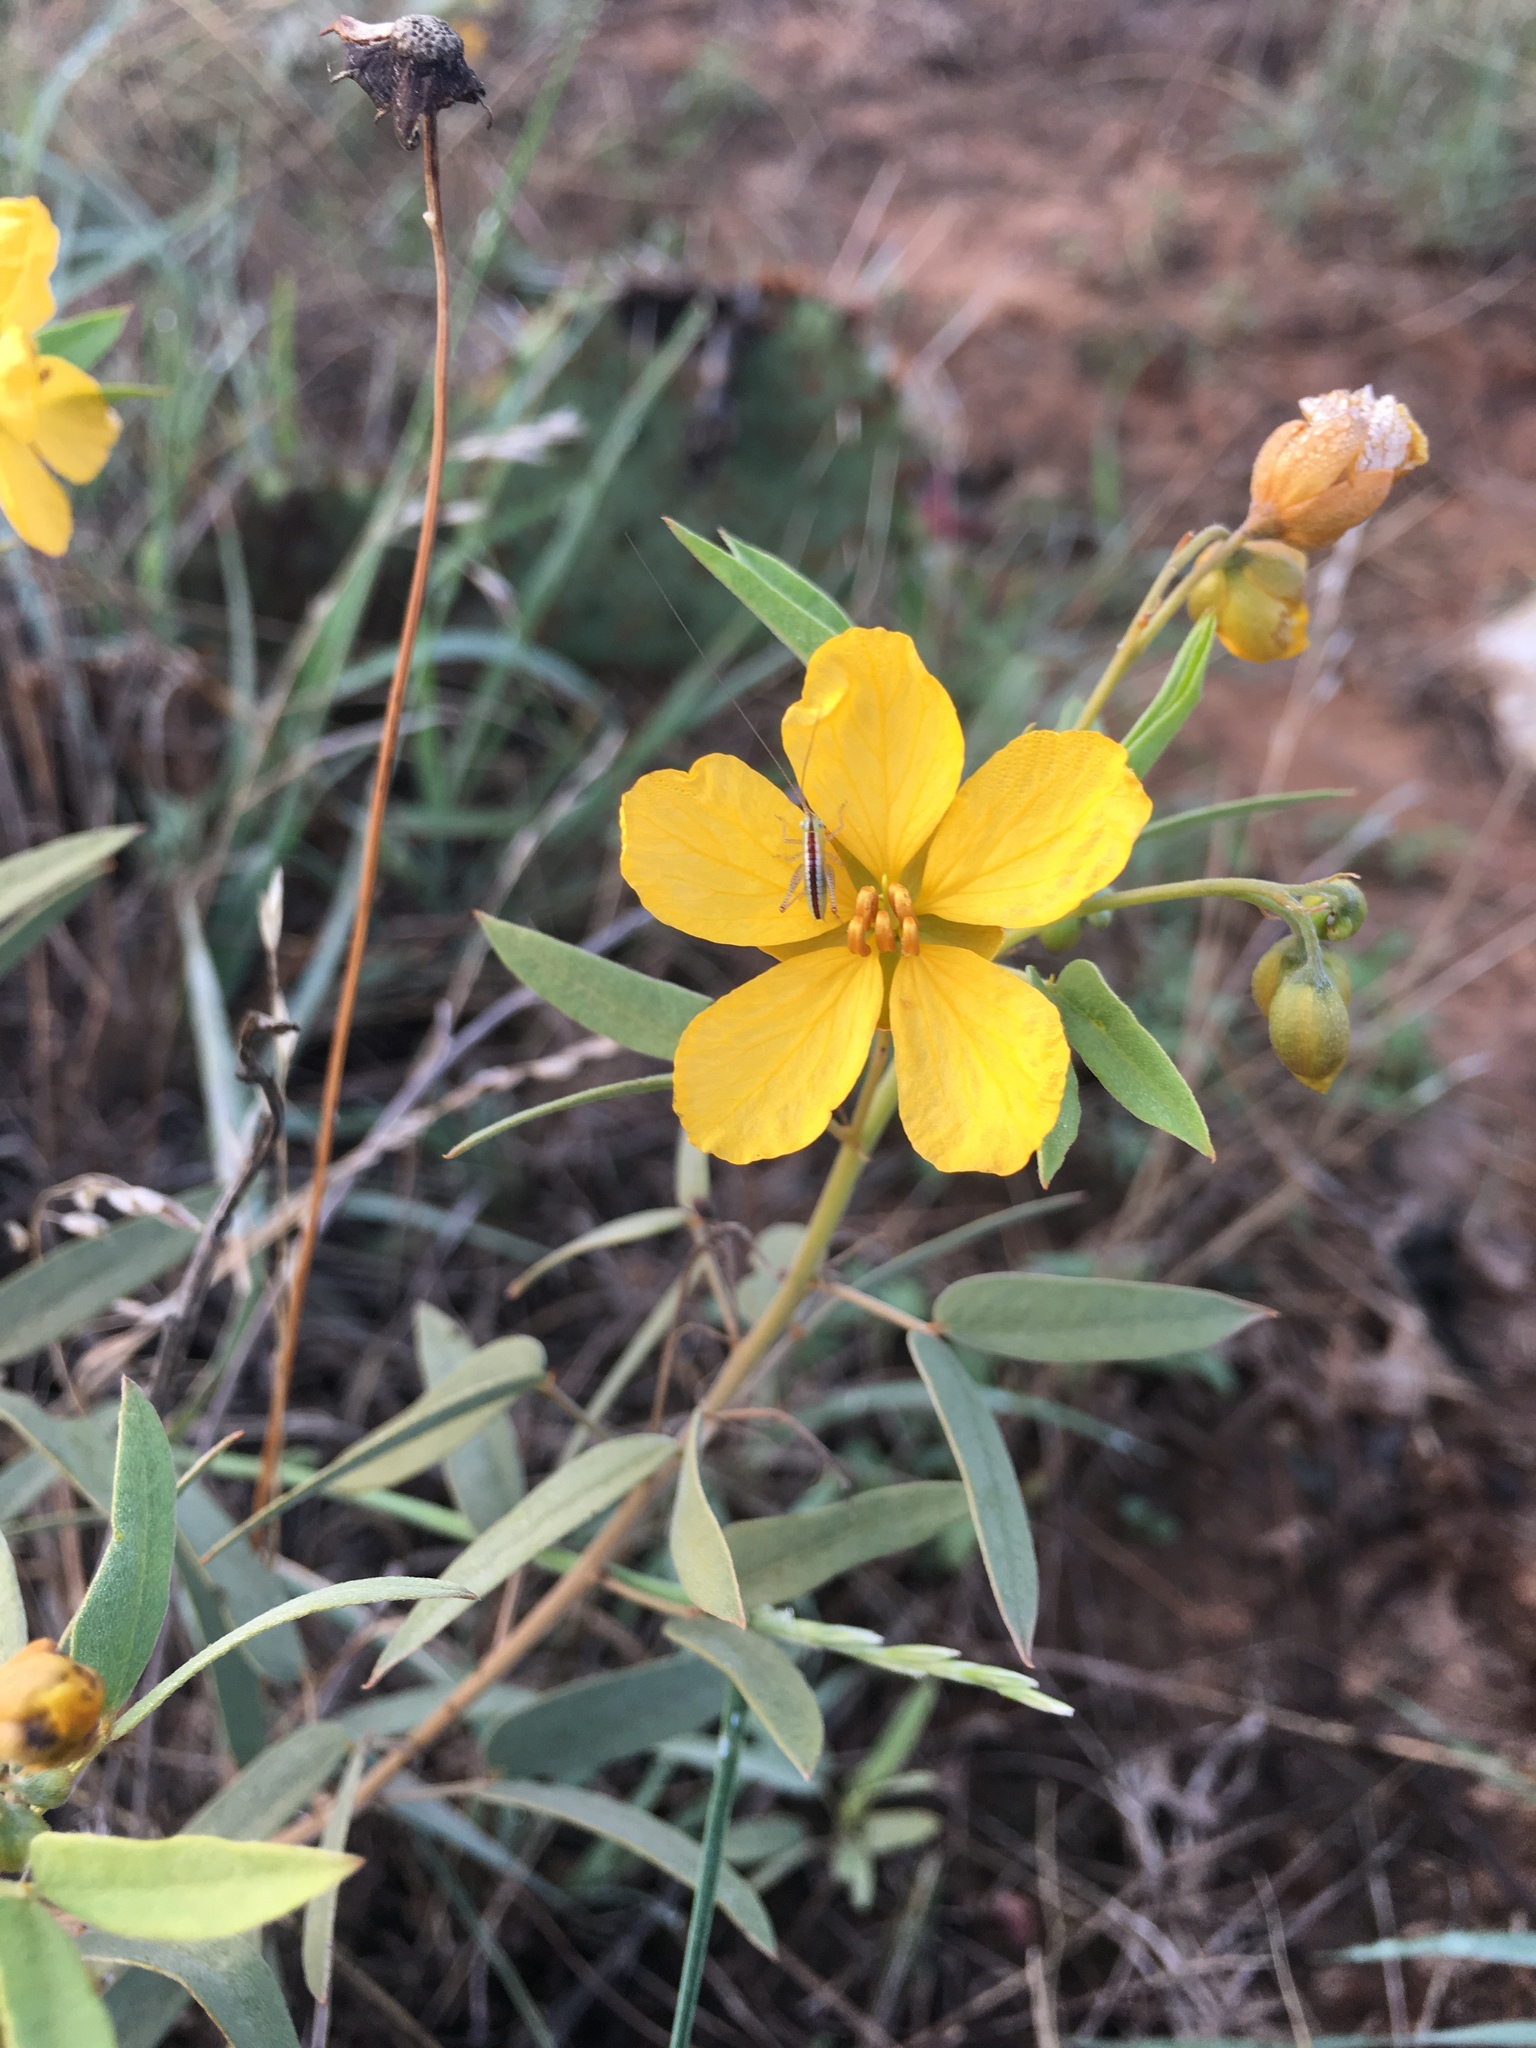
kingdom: Plantae
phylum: Tracheophyta
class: Magnoliopsida
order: Fabales
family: Fabaceae
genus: Senna
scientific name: Senna roemeriana
